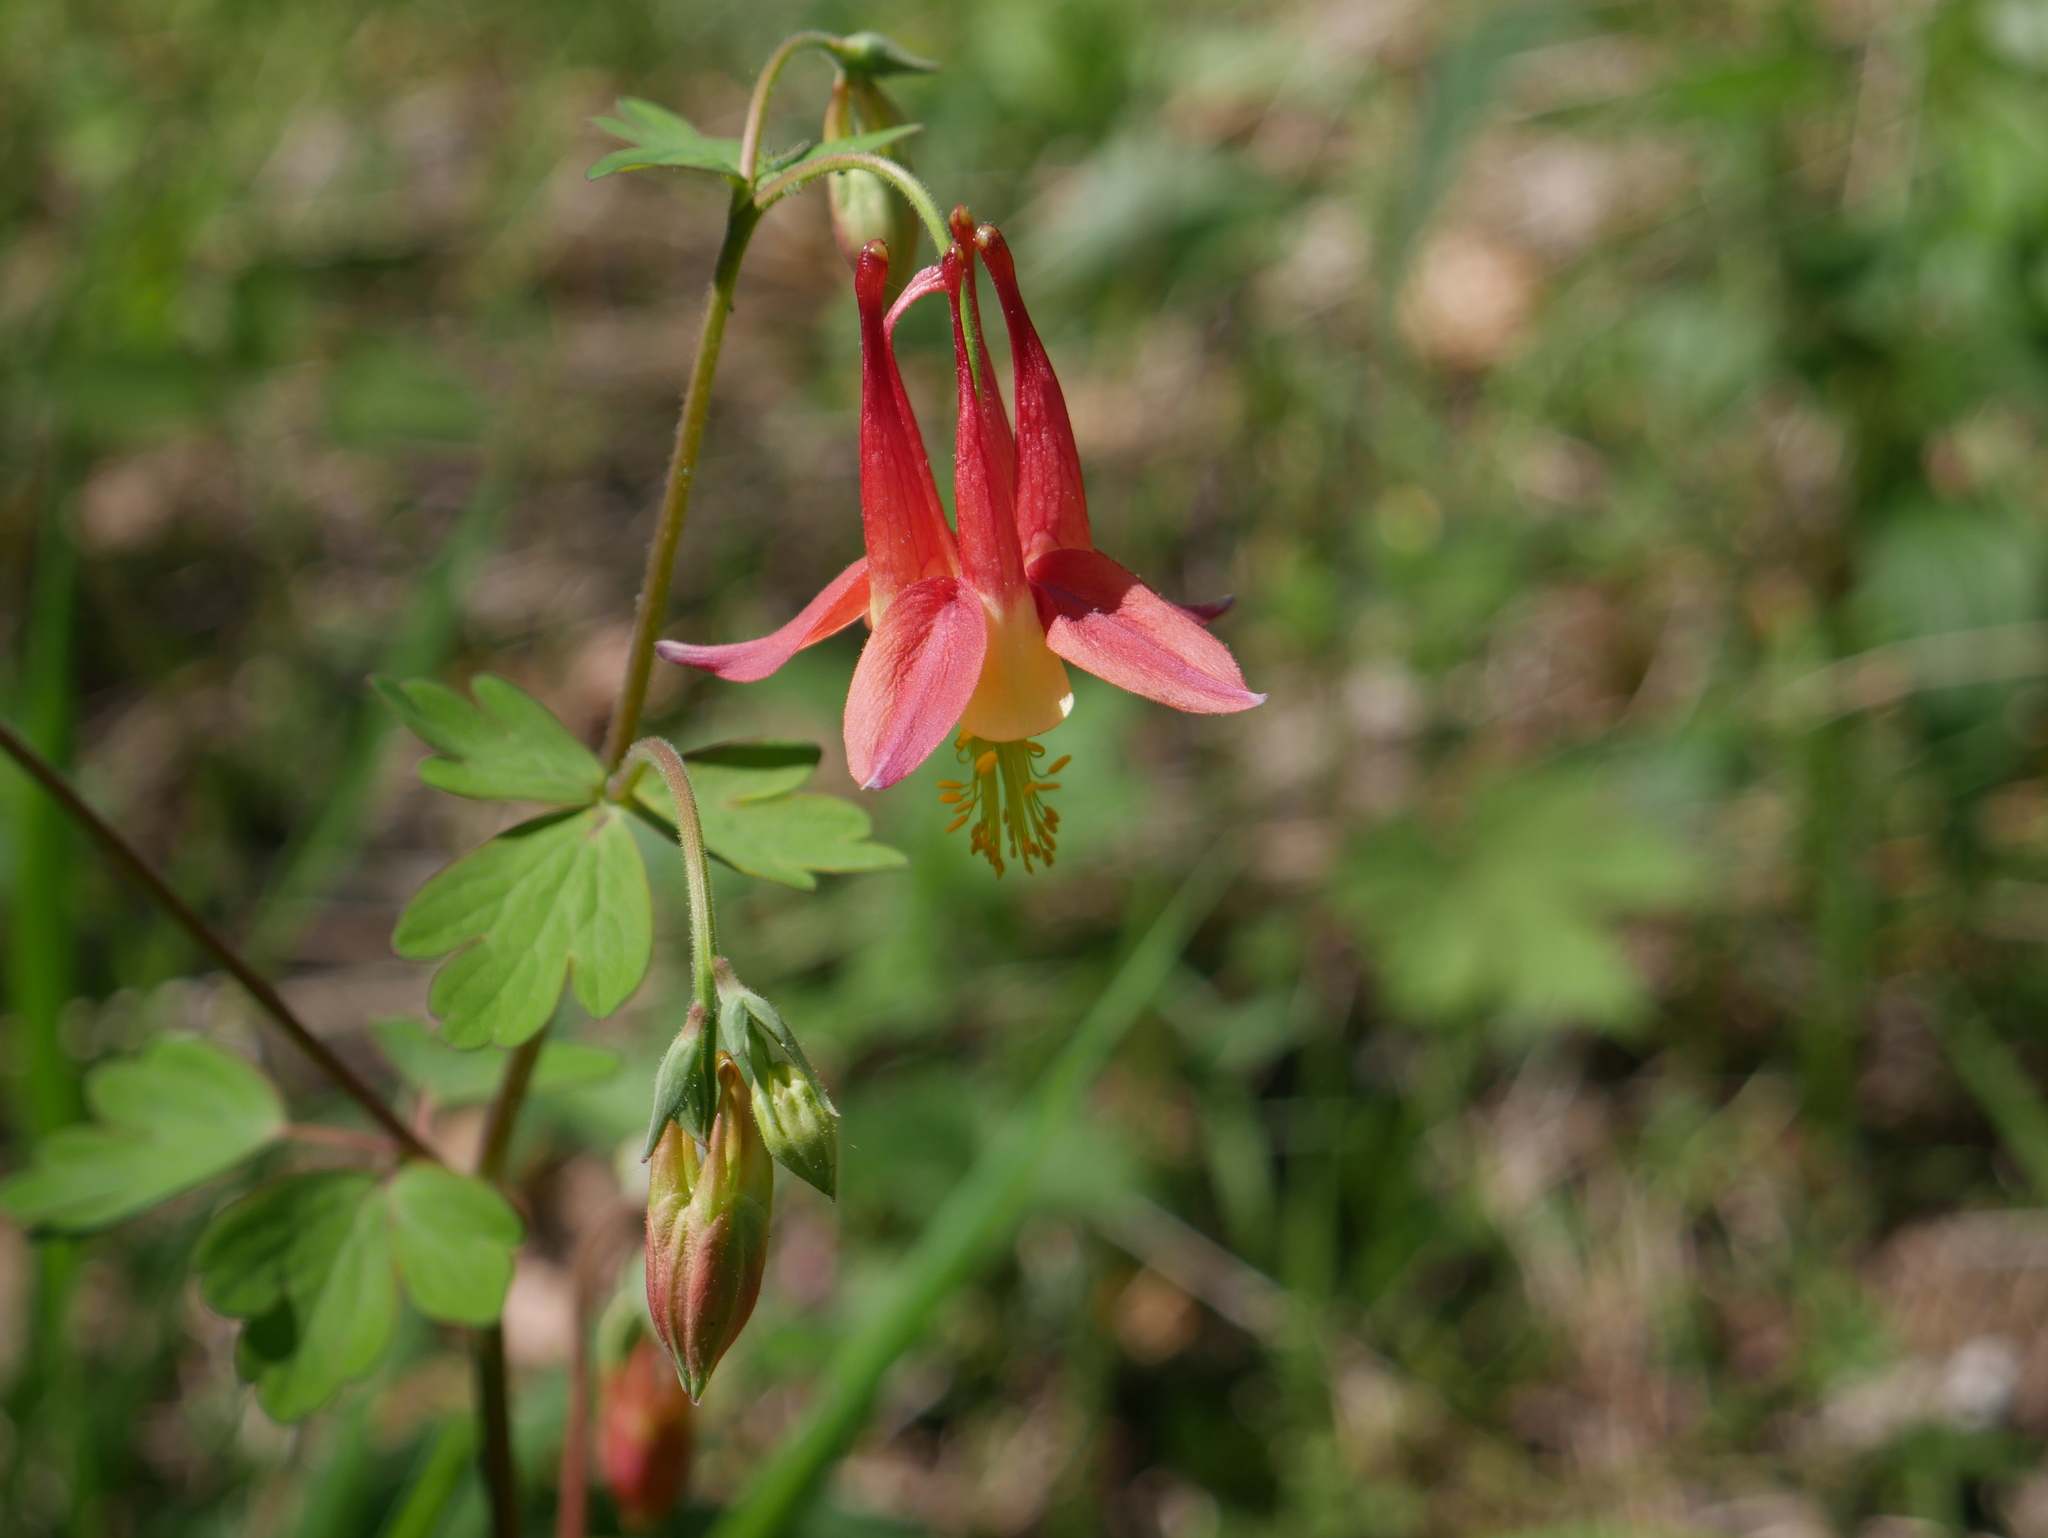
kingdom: Plantae
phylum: Tracheophyta
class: Magnoliopsida
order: Ranunculales
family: Ranunculaceae
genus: Aquilegia
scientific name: Aquilegia canadensis
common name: American columbine
